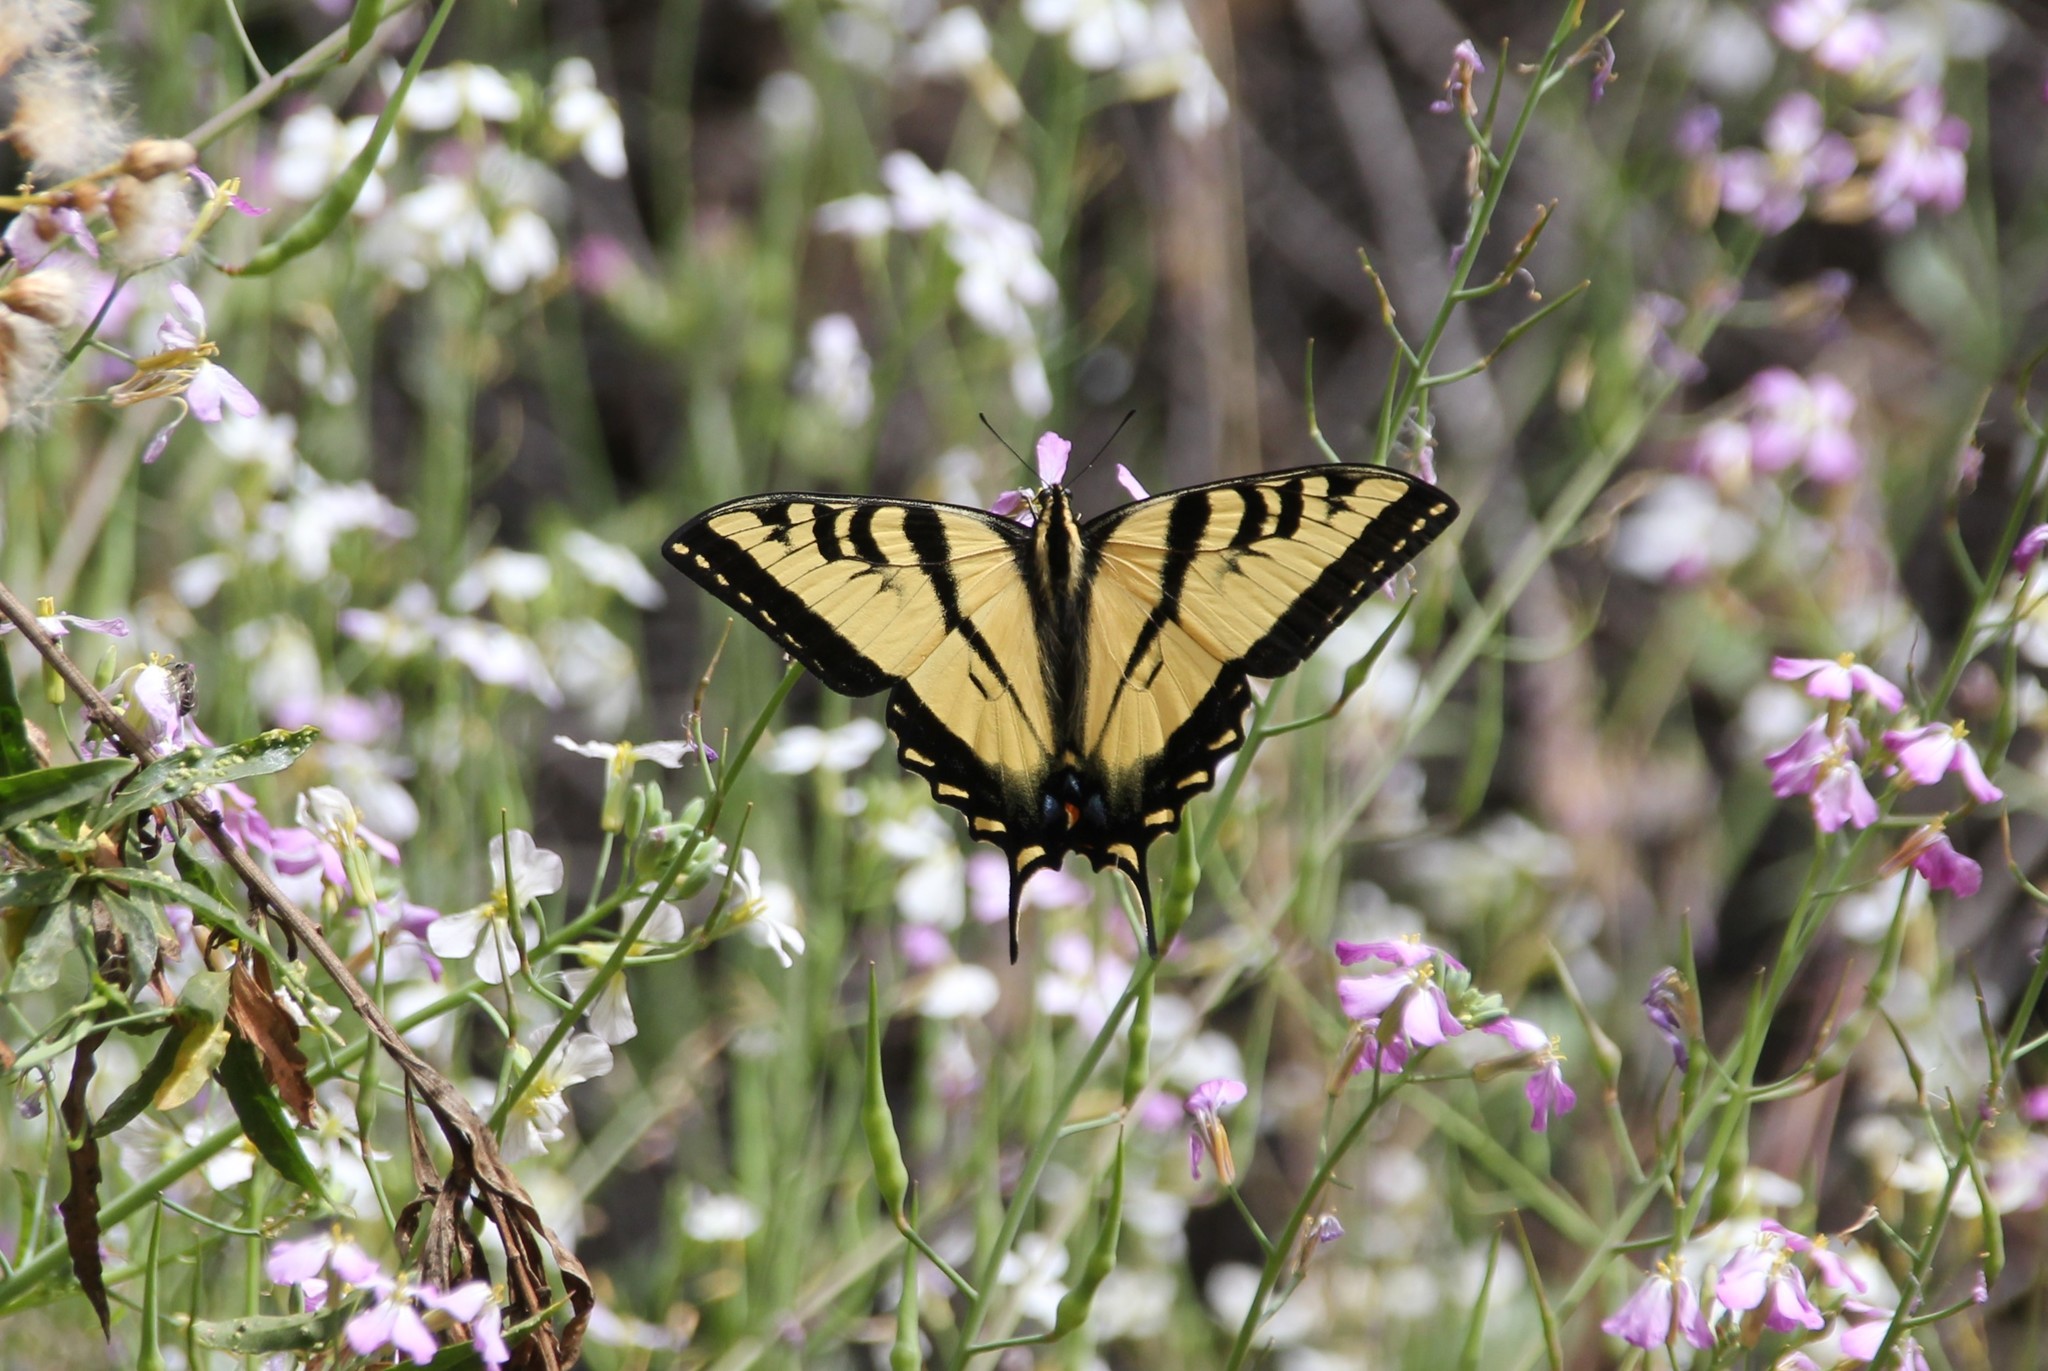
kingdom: Animalia
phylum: Arthropoda
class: Insecta
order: Lepidoptera
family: Papilionidae
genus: Papilio
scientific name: Papilio rutulus
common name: Western tiger swallowtail
